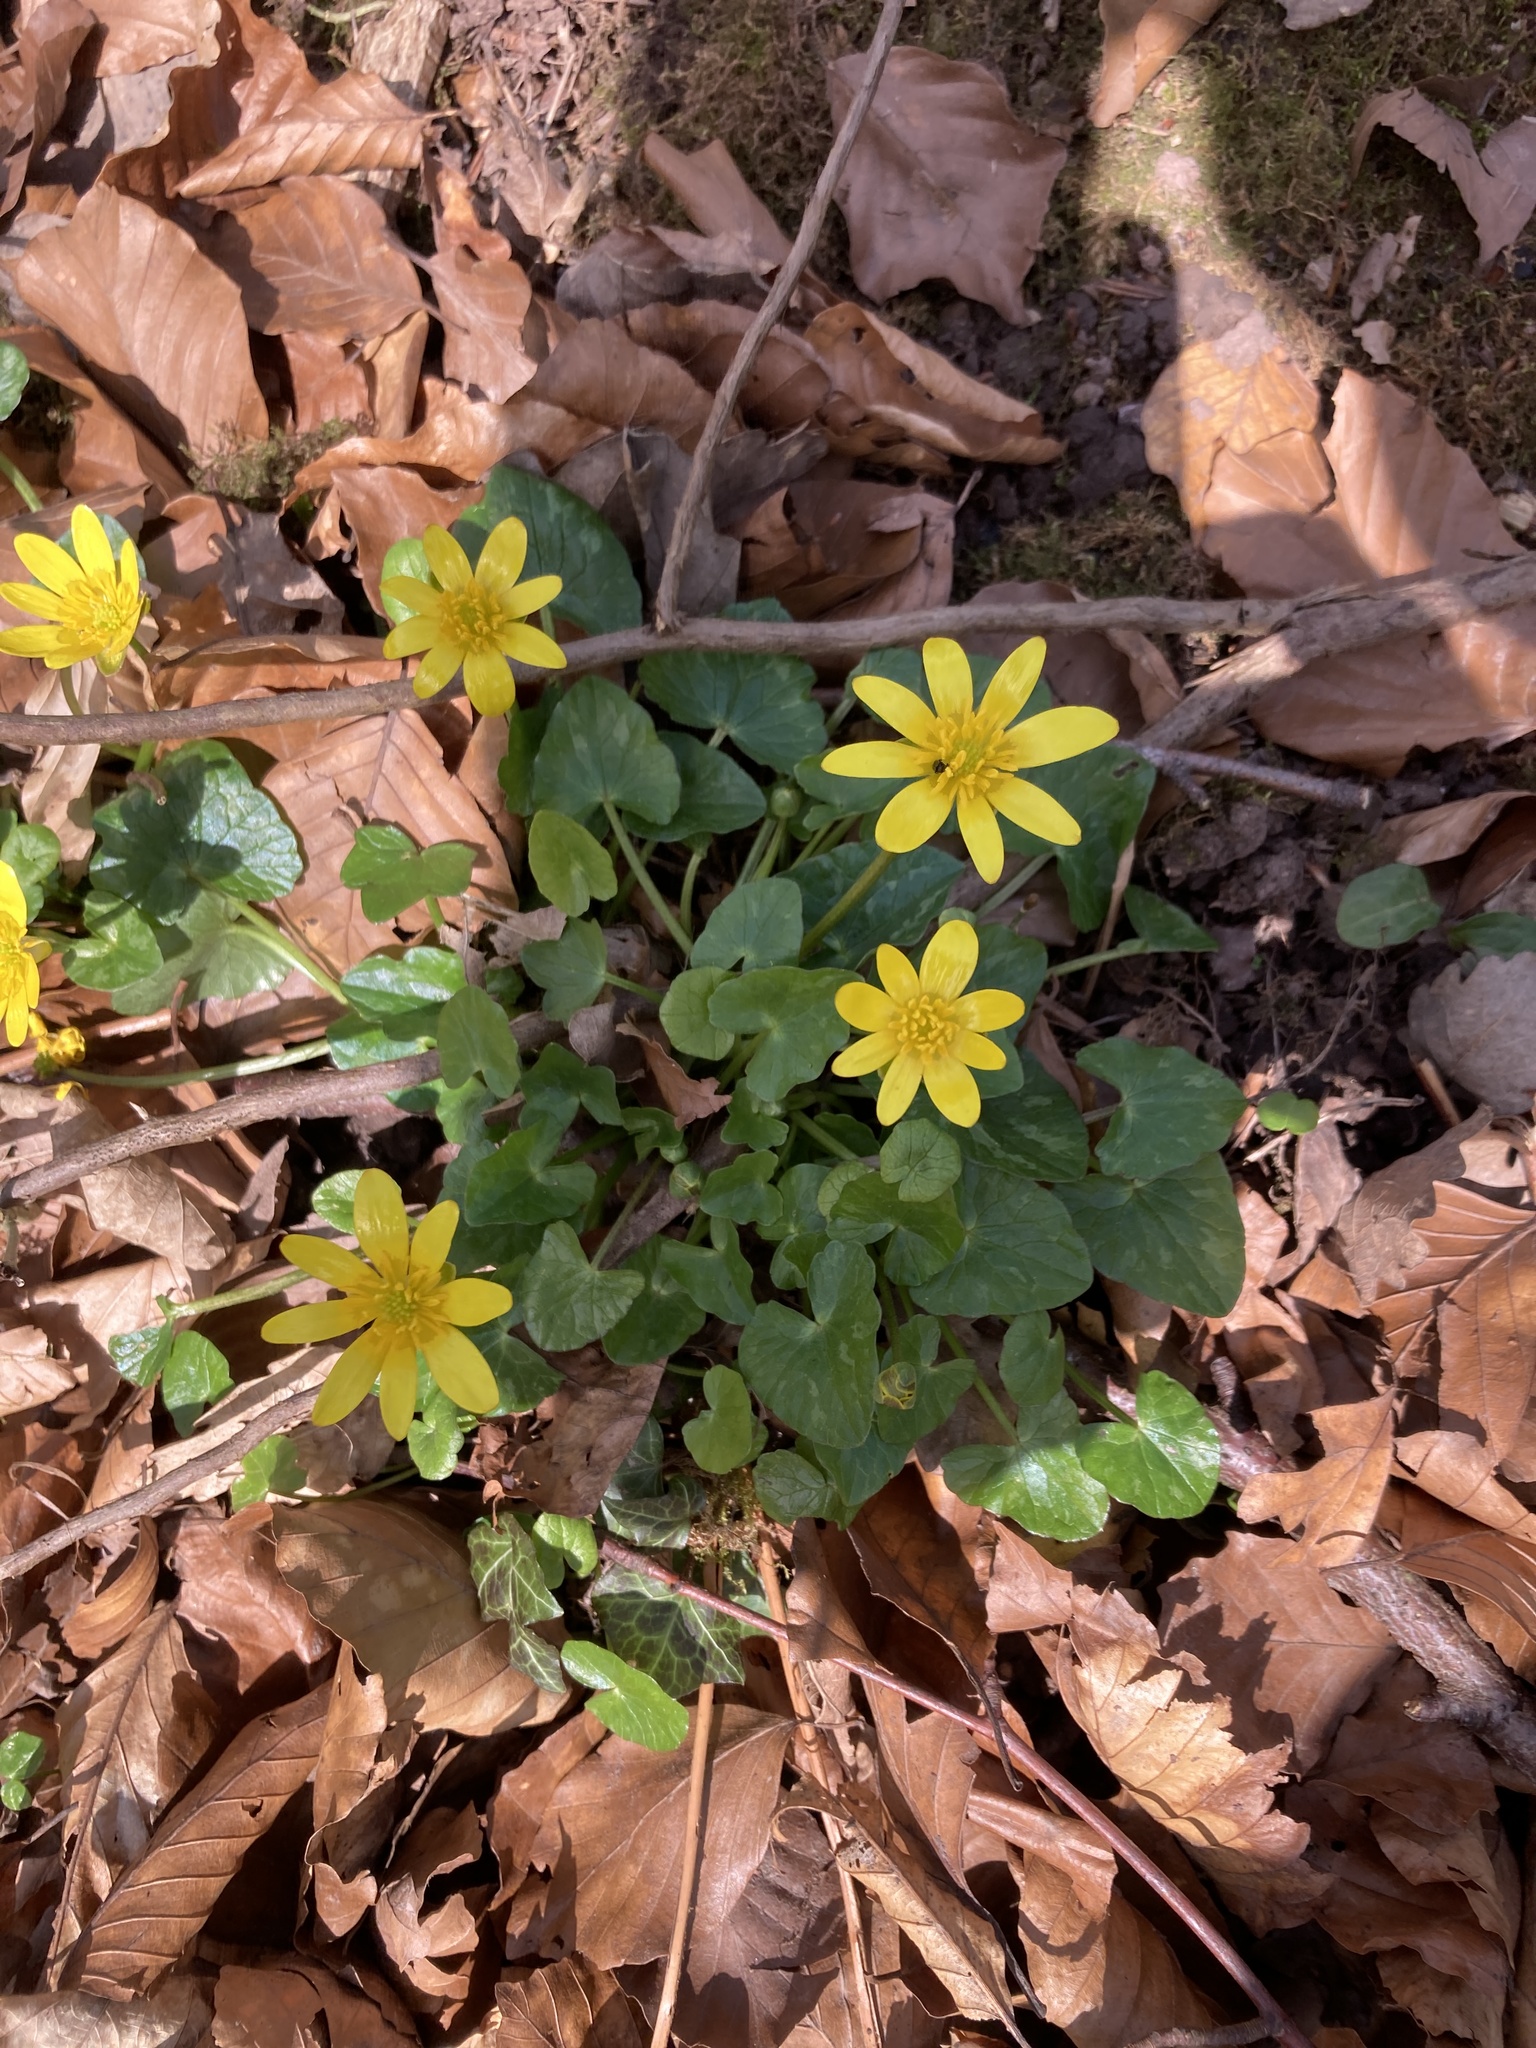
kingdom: Plantae
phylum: Tracheophyta
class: Magnoliopsida
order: Ranunculales
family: Ranunculaceae
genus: Ficaria
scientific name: Ficaria verna
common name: Lesser celandine
